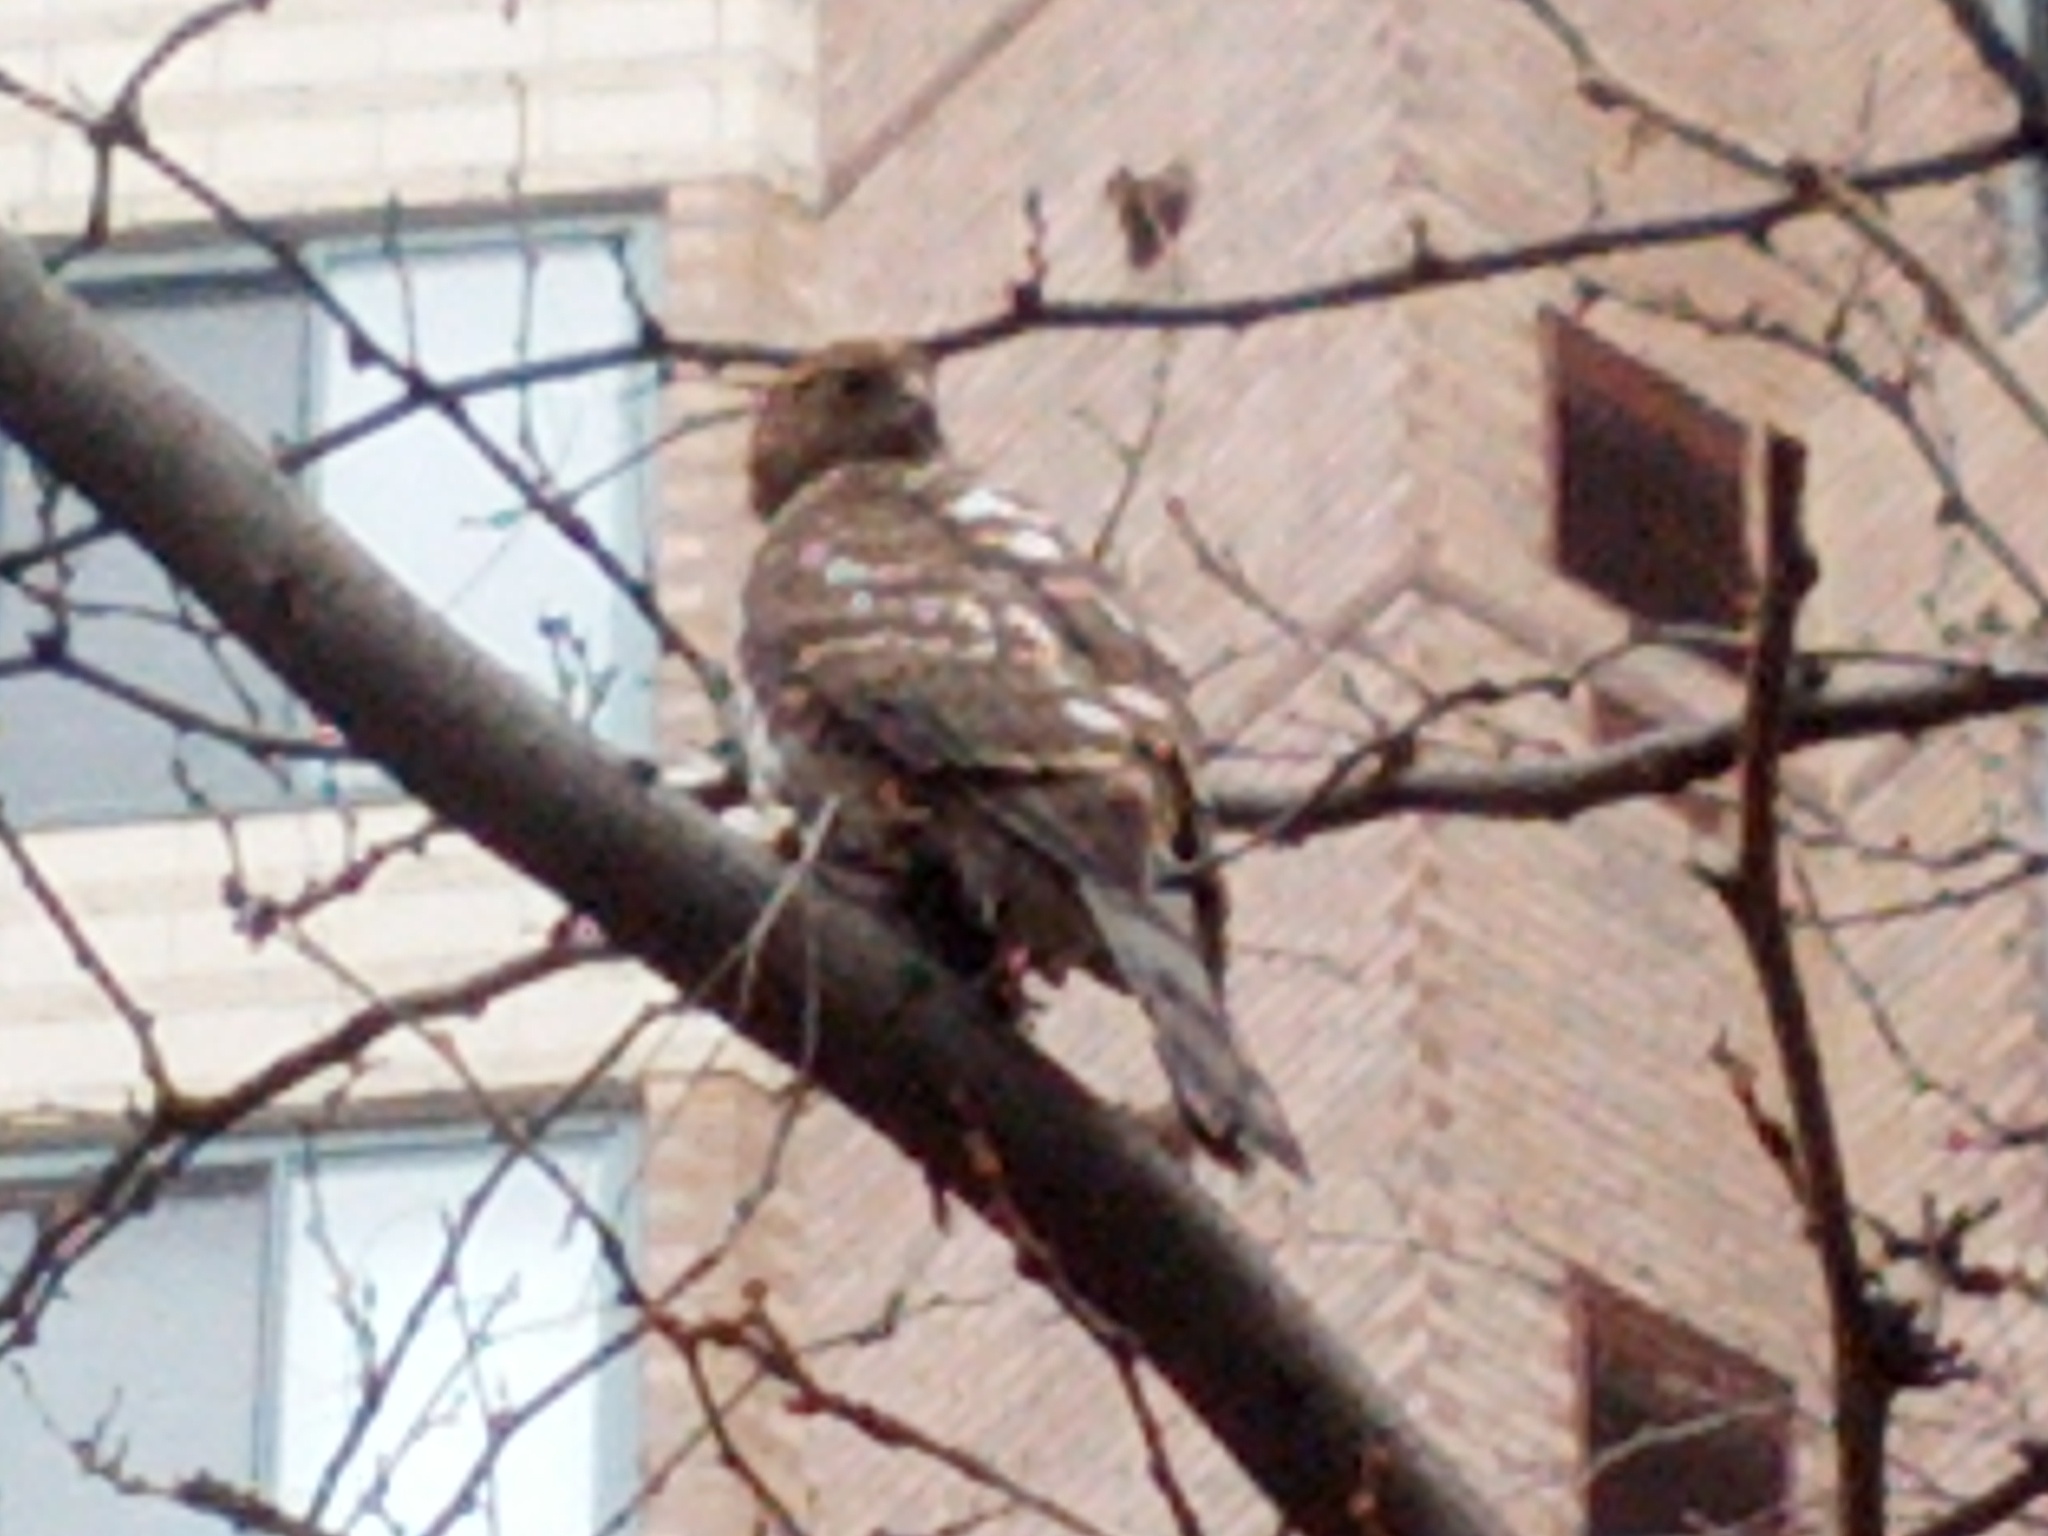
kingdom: Animalia
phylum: Chordata
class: Aves
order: Accipitriformes
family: Accipitridae
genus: Accipiter
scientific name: Accipiter cooperii
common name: Cooper's hawk
